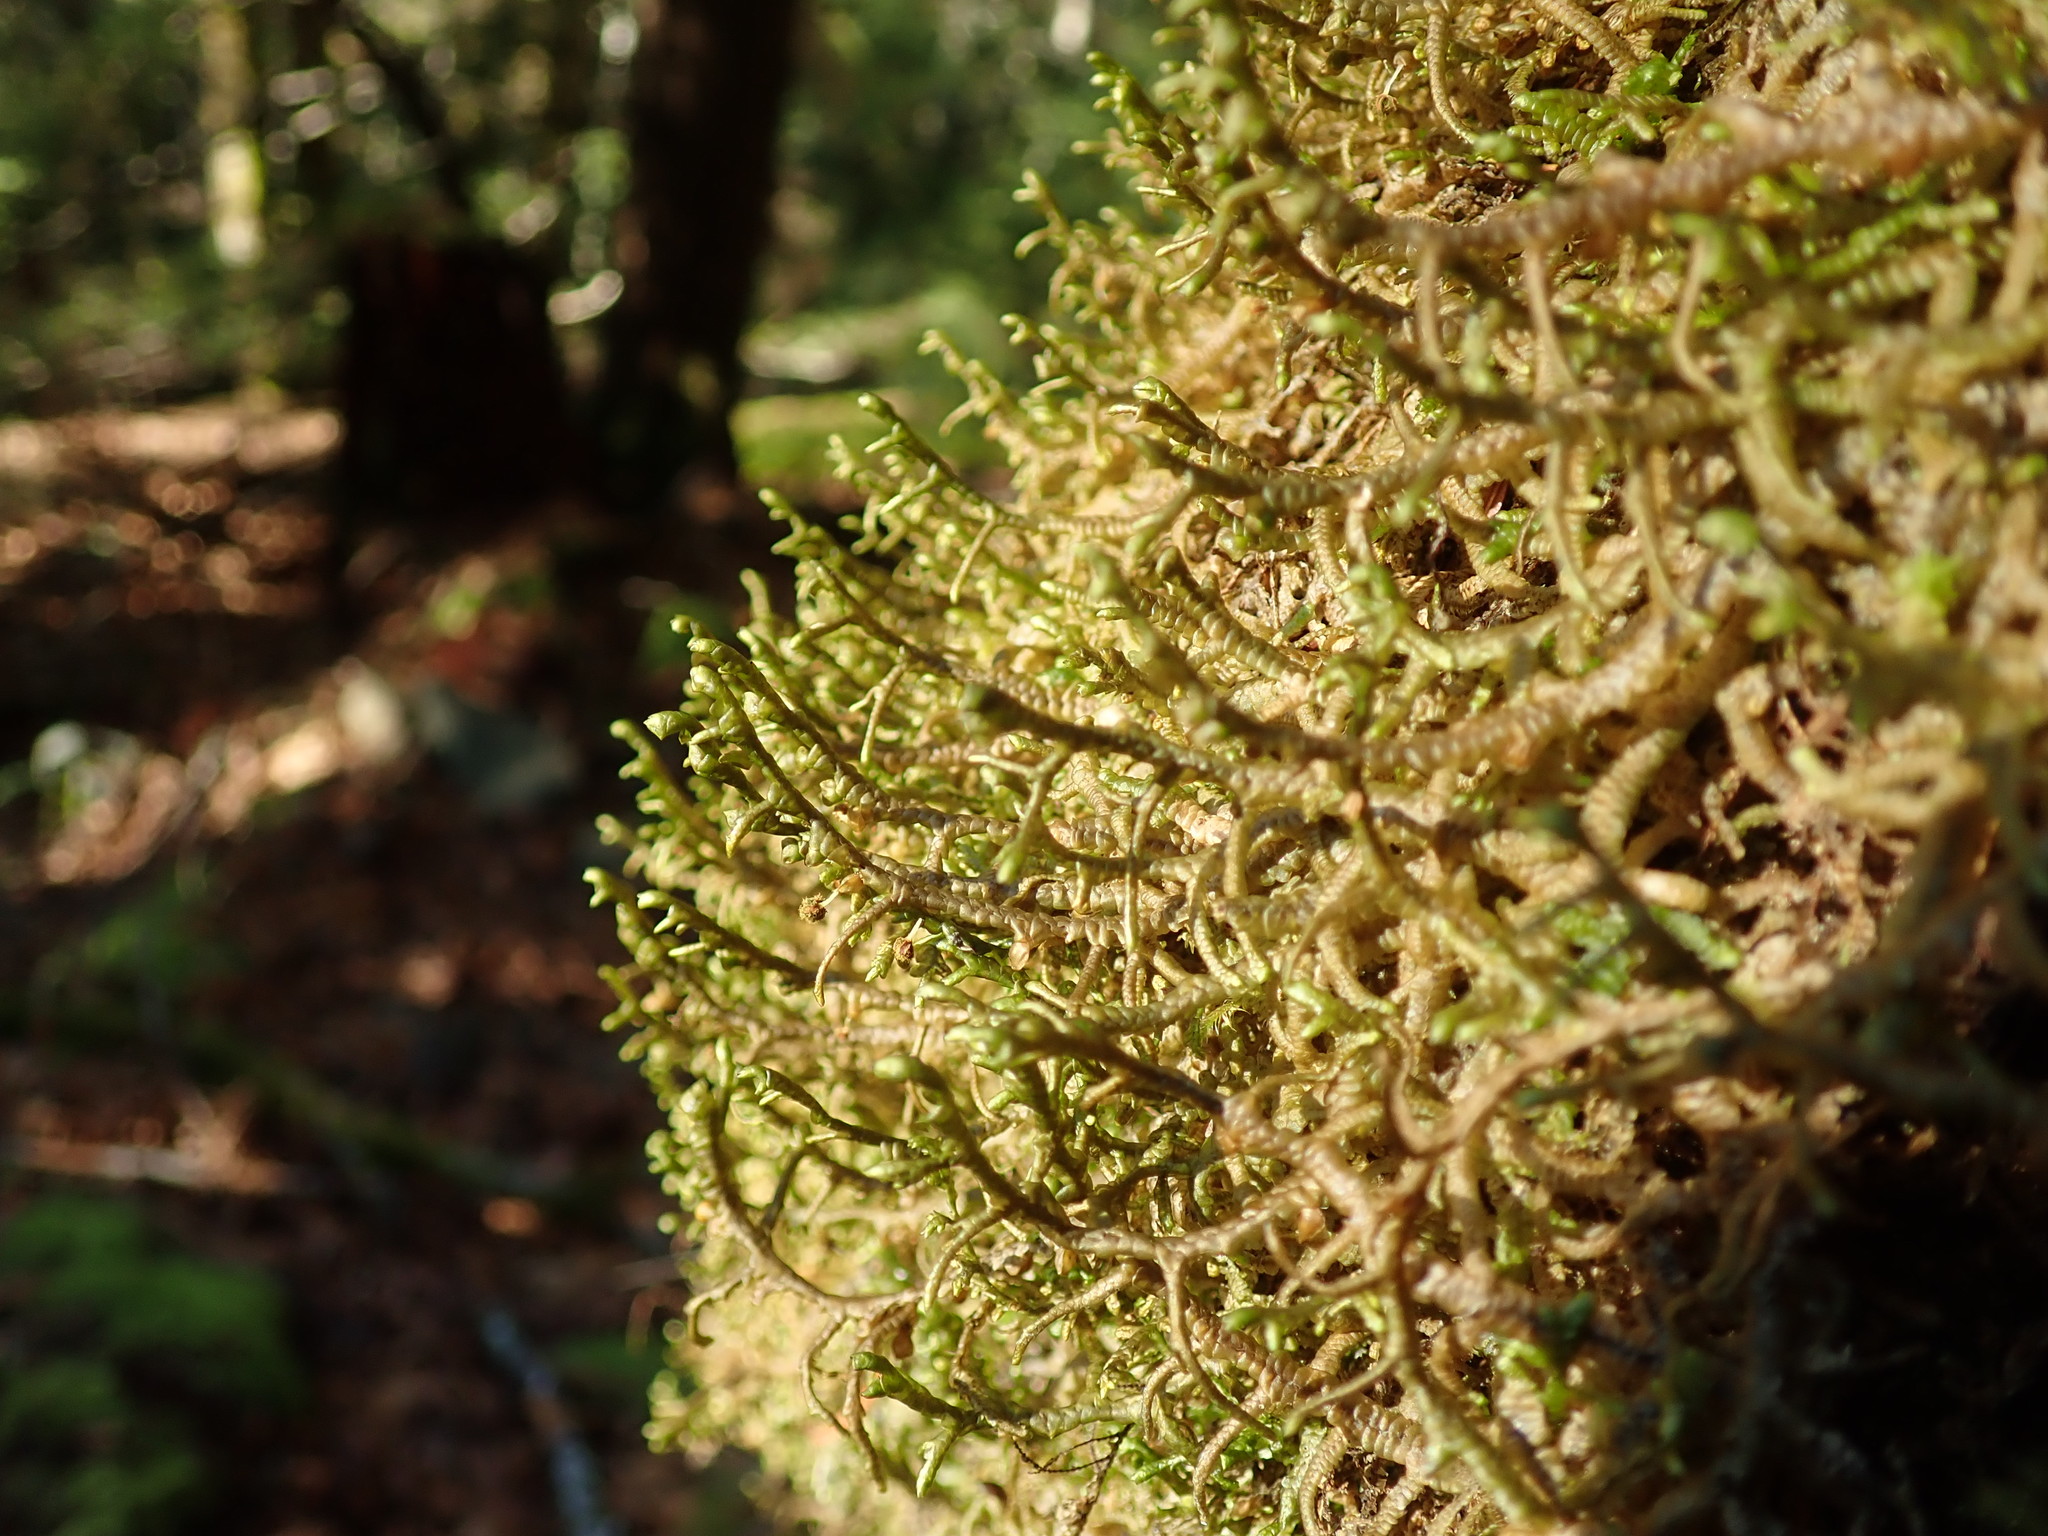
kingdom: Plantae
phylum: Marchantiophyta
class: Jungermanniopsida
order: Porellales
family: Porellaceae
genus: Porella
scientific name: Porella navicularis
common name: Tree ruffle liverwort
